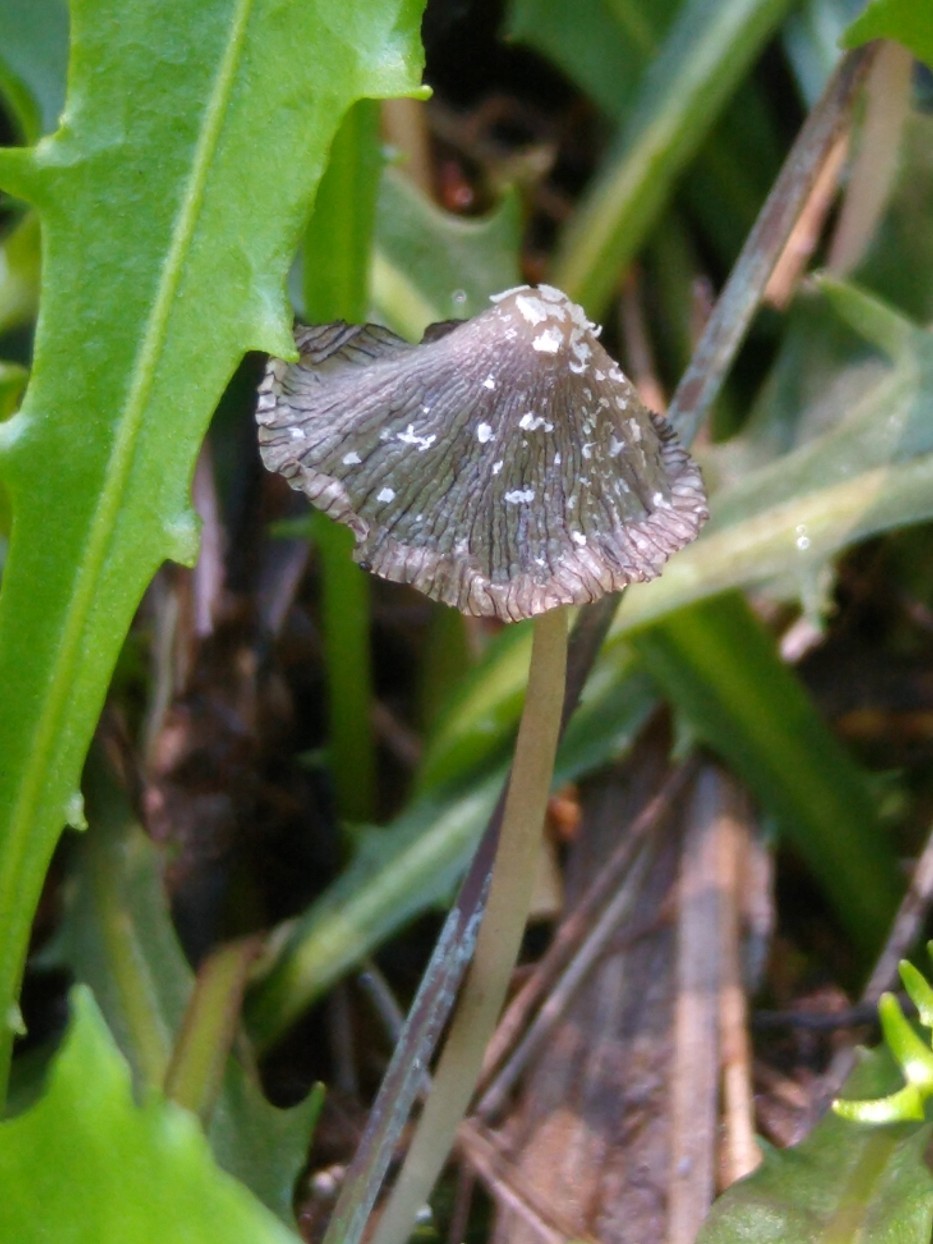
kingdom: Fungi
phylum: Basidiomycota
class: Agaricomycetes
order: Agaricales
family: Psathyrellaceae
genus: Coprinopsis
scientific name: Coprinopsis picacea
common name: Magpie inkcap
